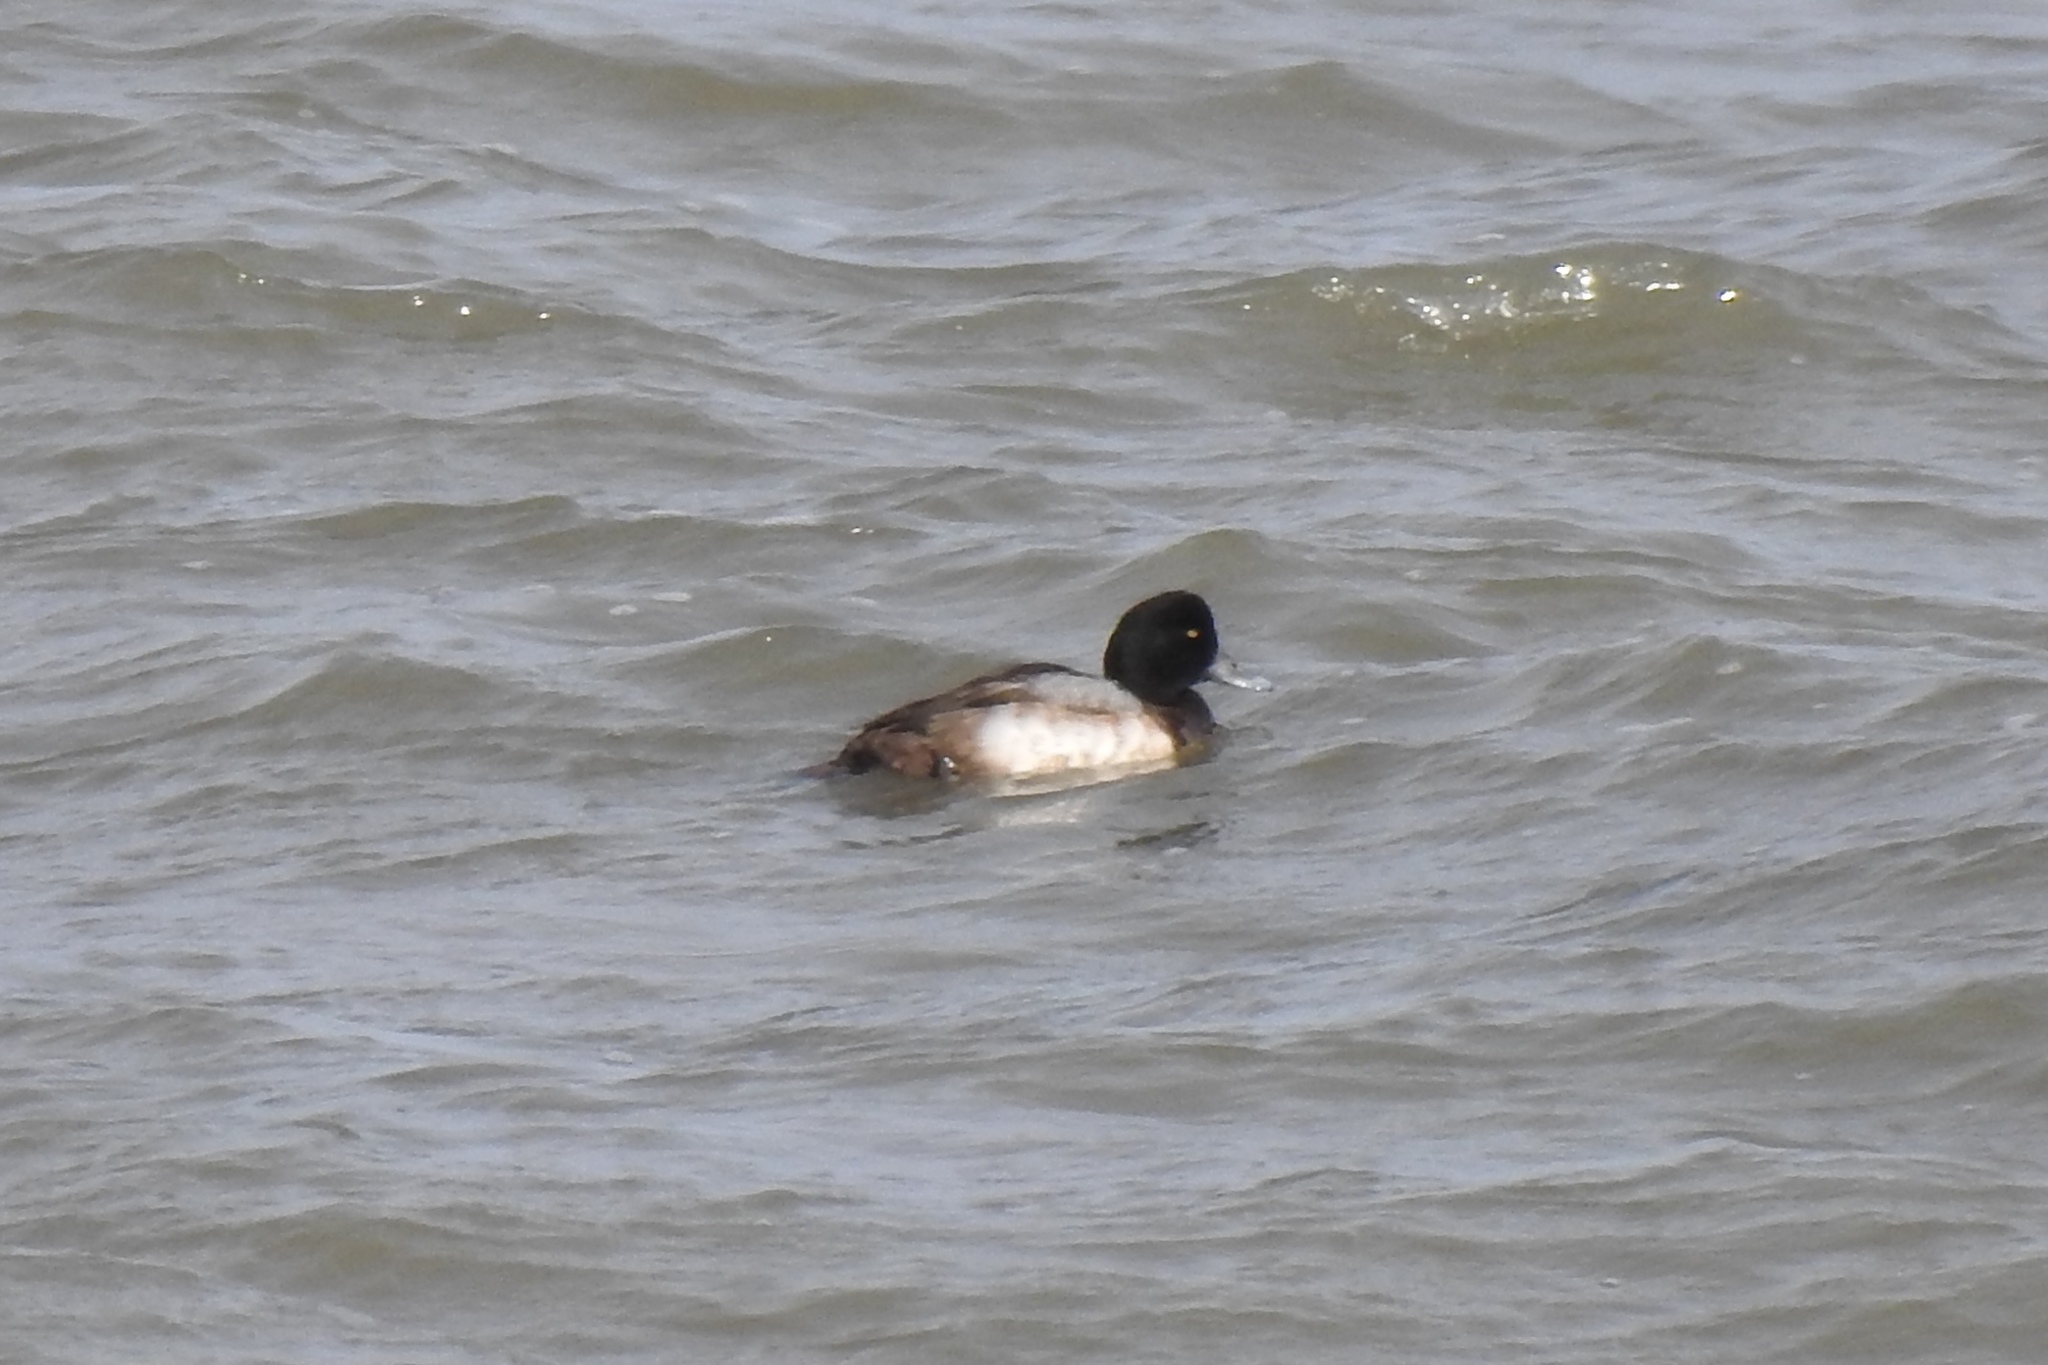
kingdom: Animalia
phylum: Chordata
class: Aves
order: Anseriformes
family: Anatidae
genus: Aythya
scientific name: Aythya marila
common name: Greater scaup
